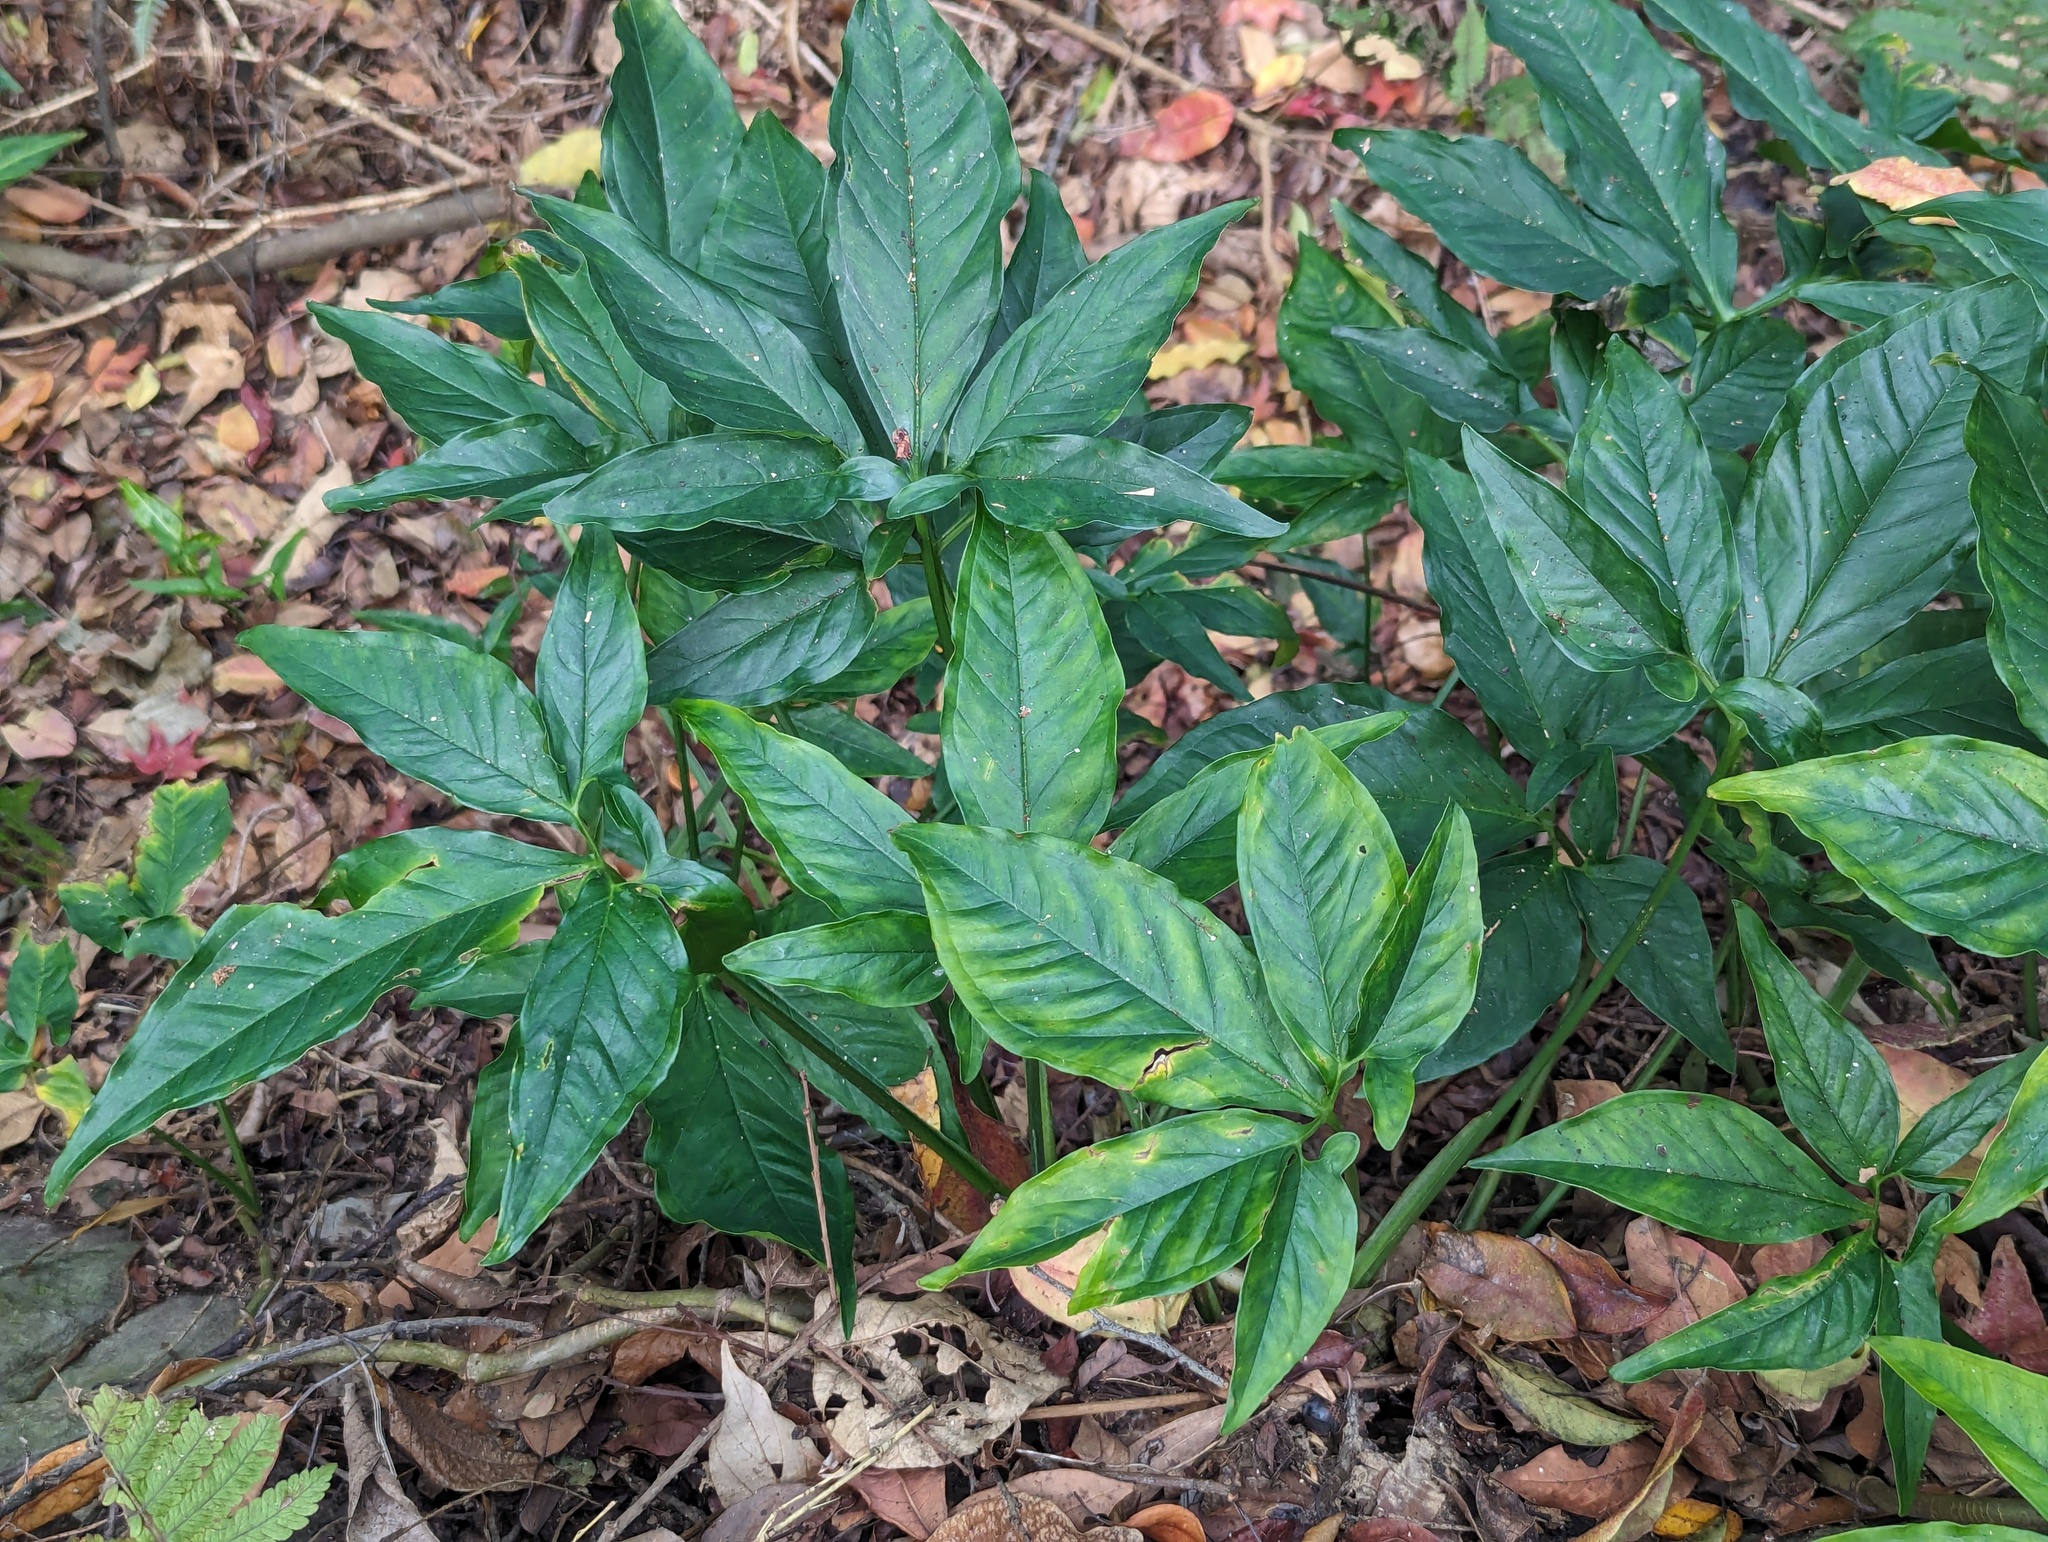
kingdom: Plantae
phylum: Tracheophyta
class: Liliopsida
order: Alismatales
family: Araceae
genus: Syngonium
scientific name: Syngonium angustatum
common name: Fivefingers
